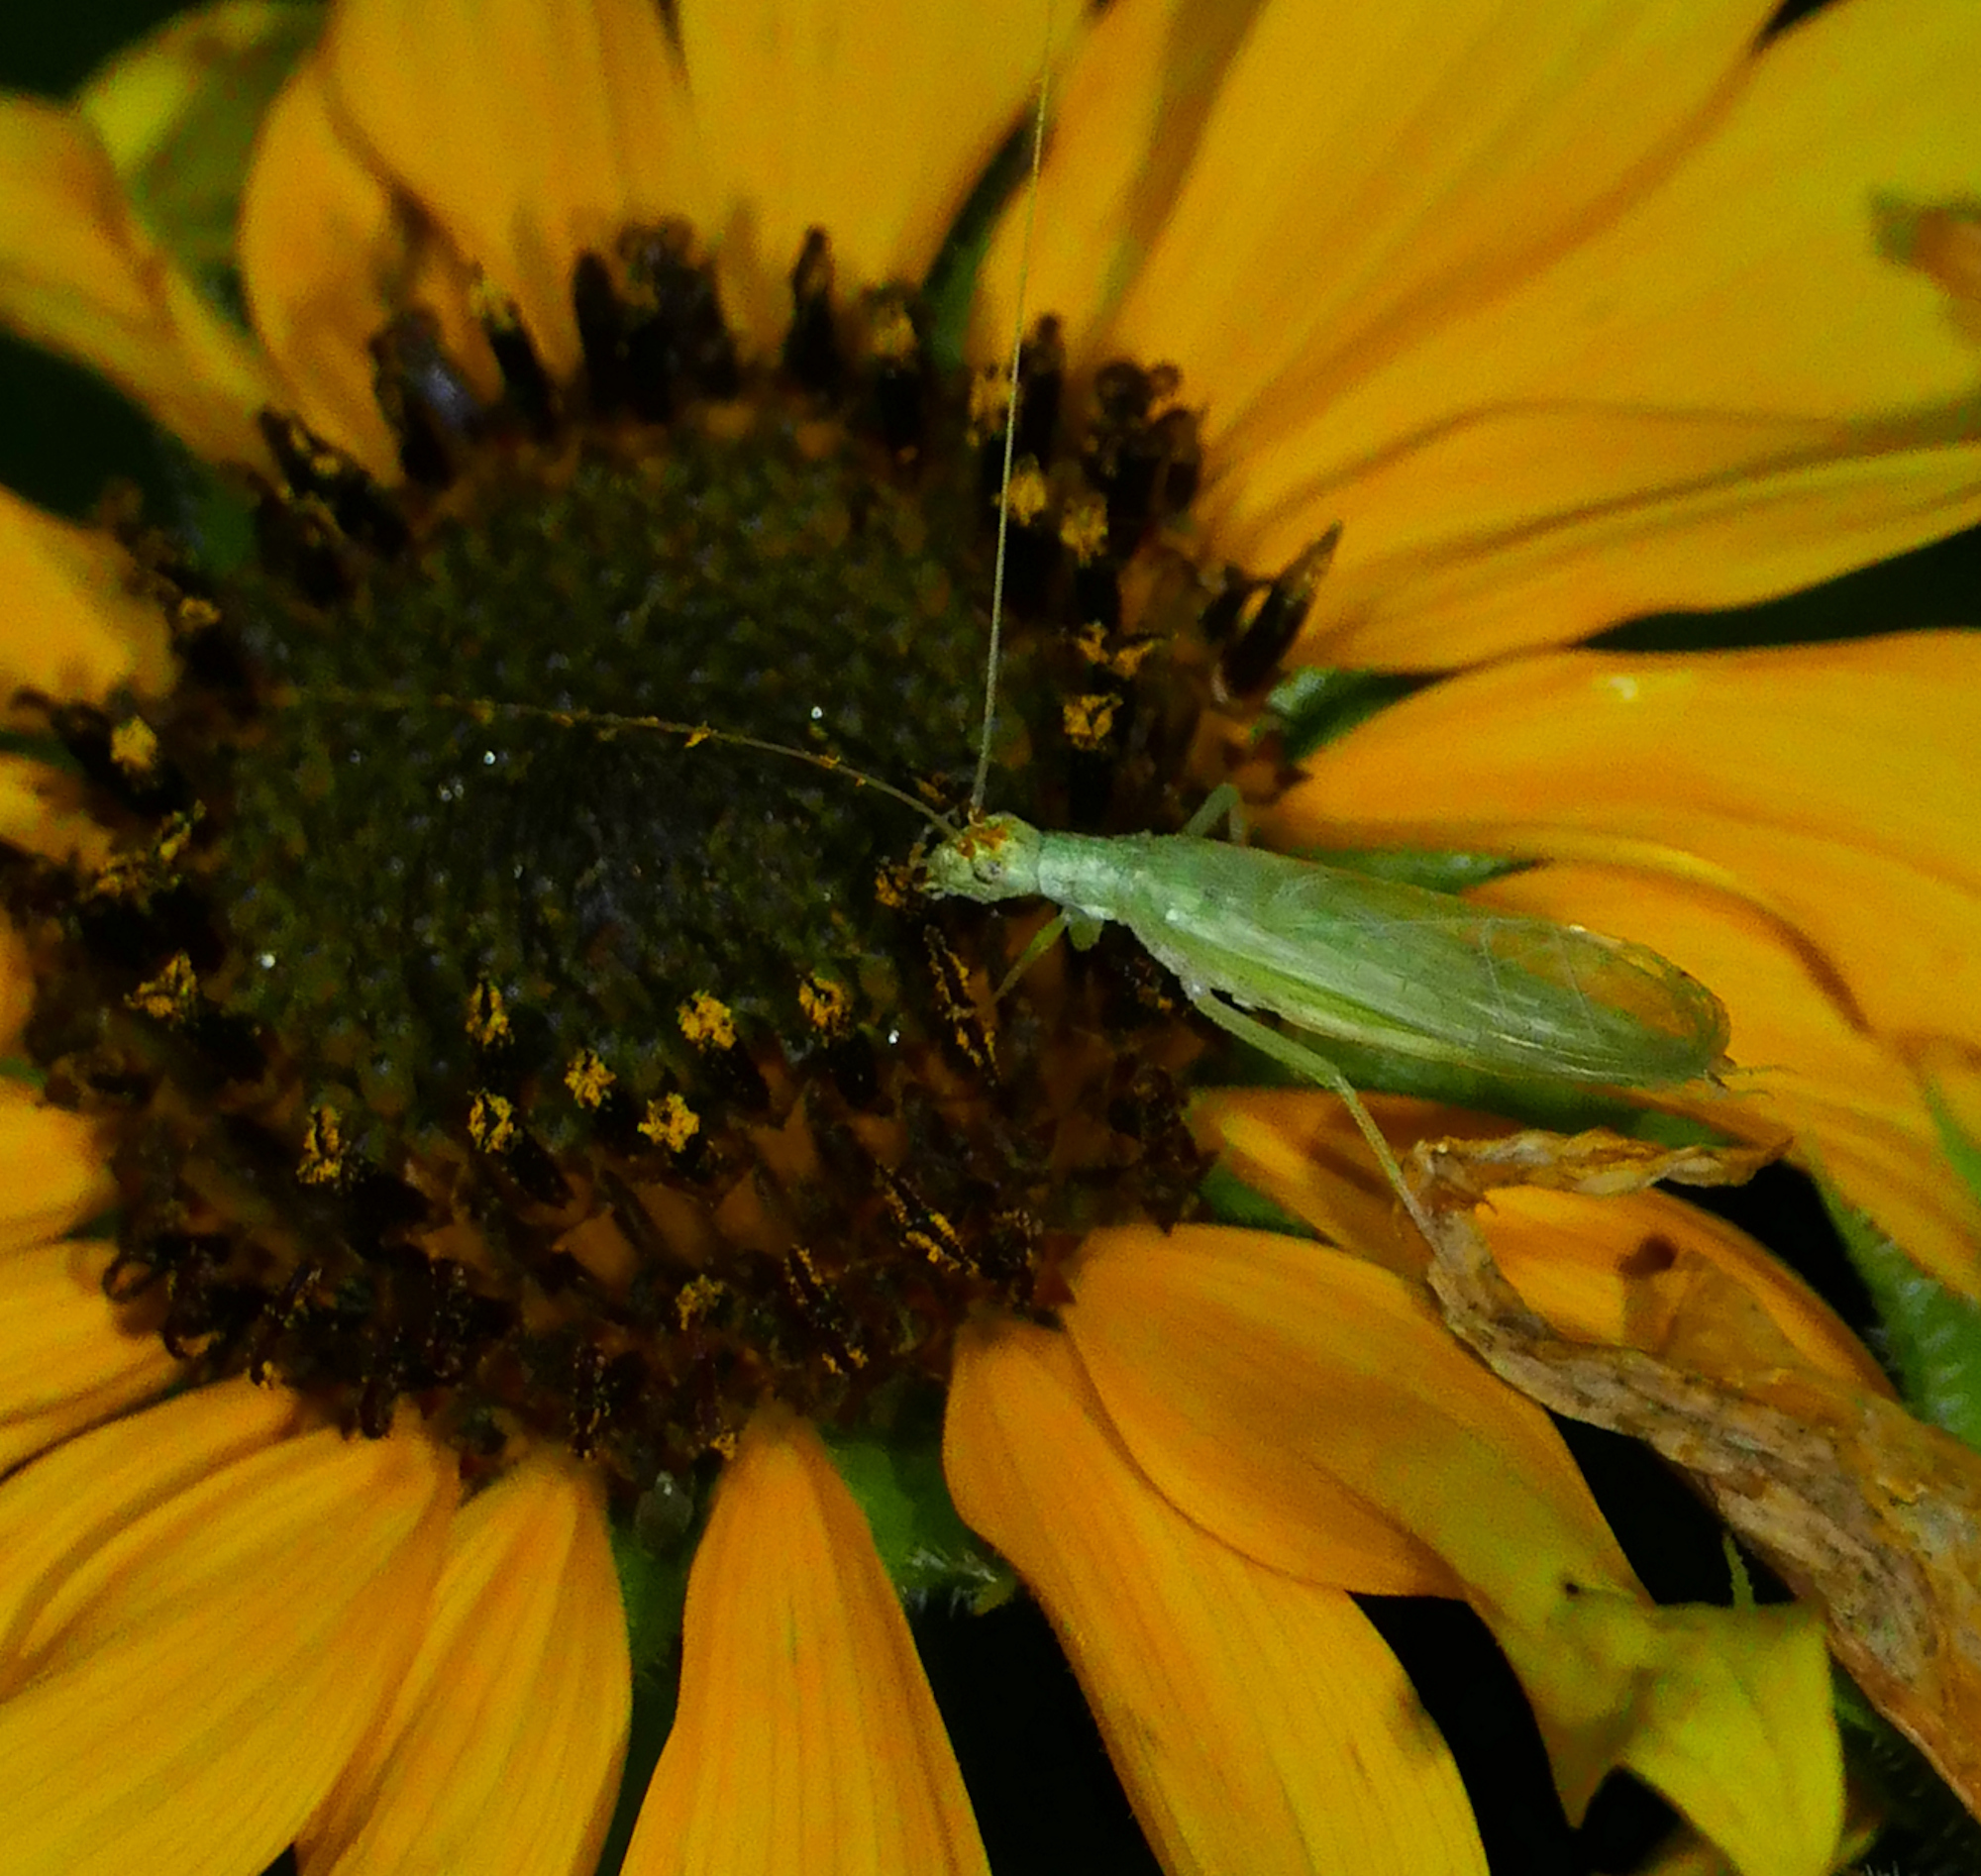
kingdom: Animalia
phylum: Arthropoda
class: Insecta
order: Orthoptera
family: Gryllidae
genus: Oecanthus
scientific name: Oecanthus
